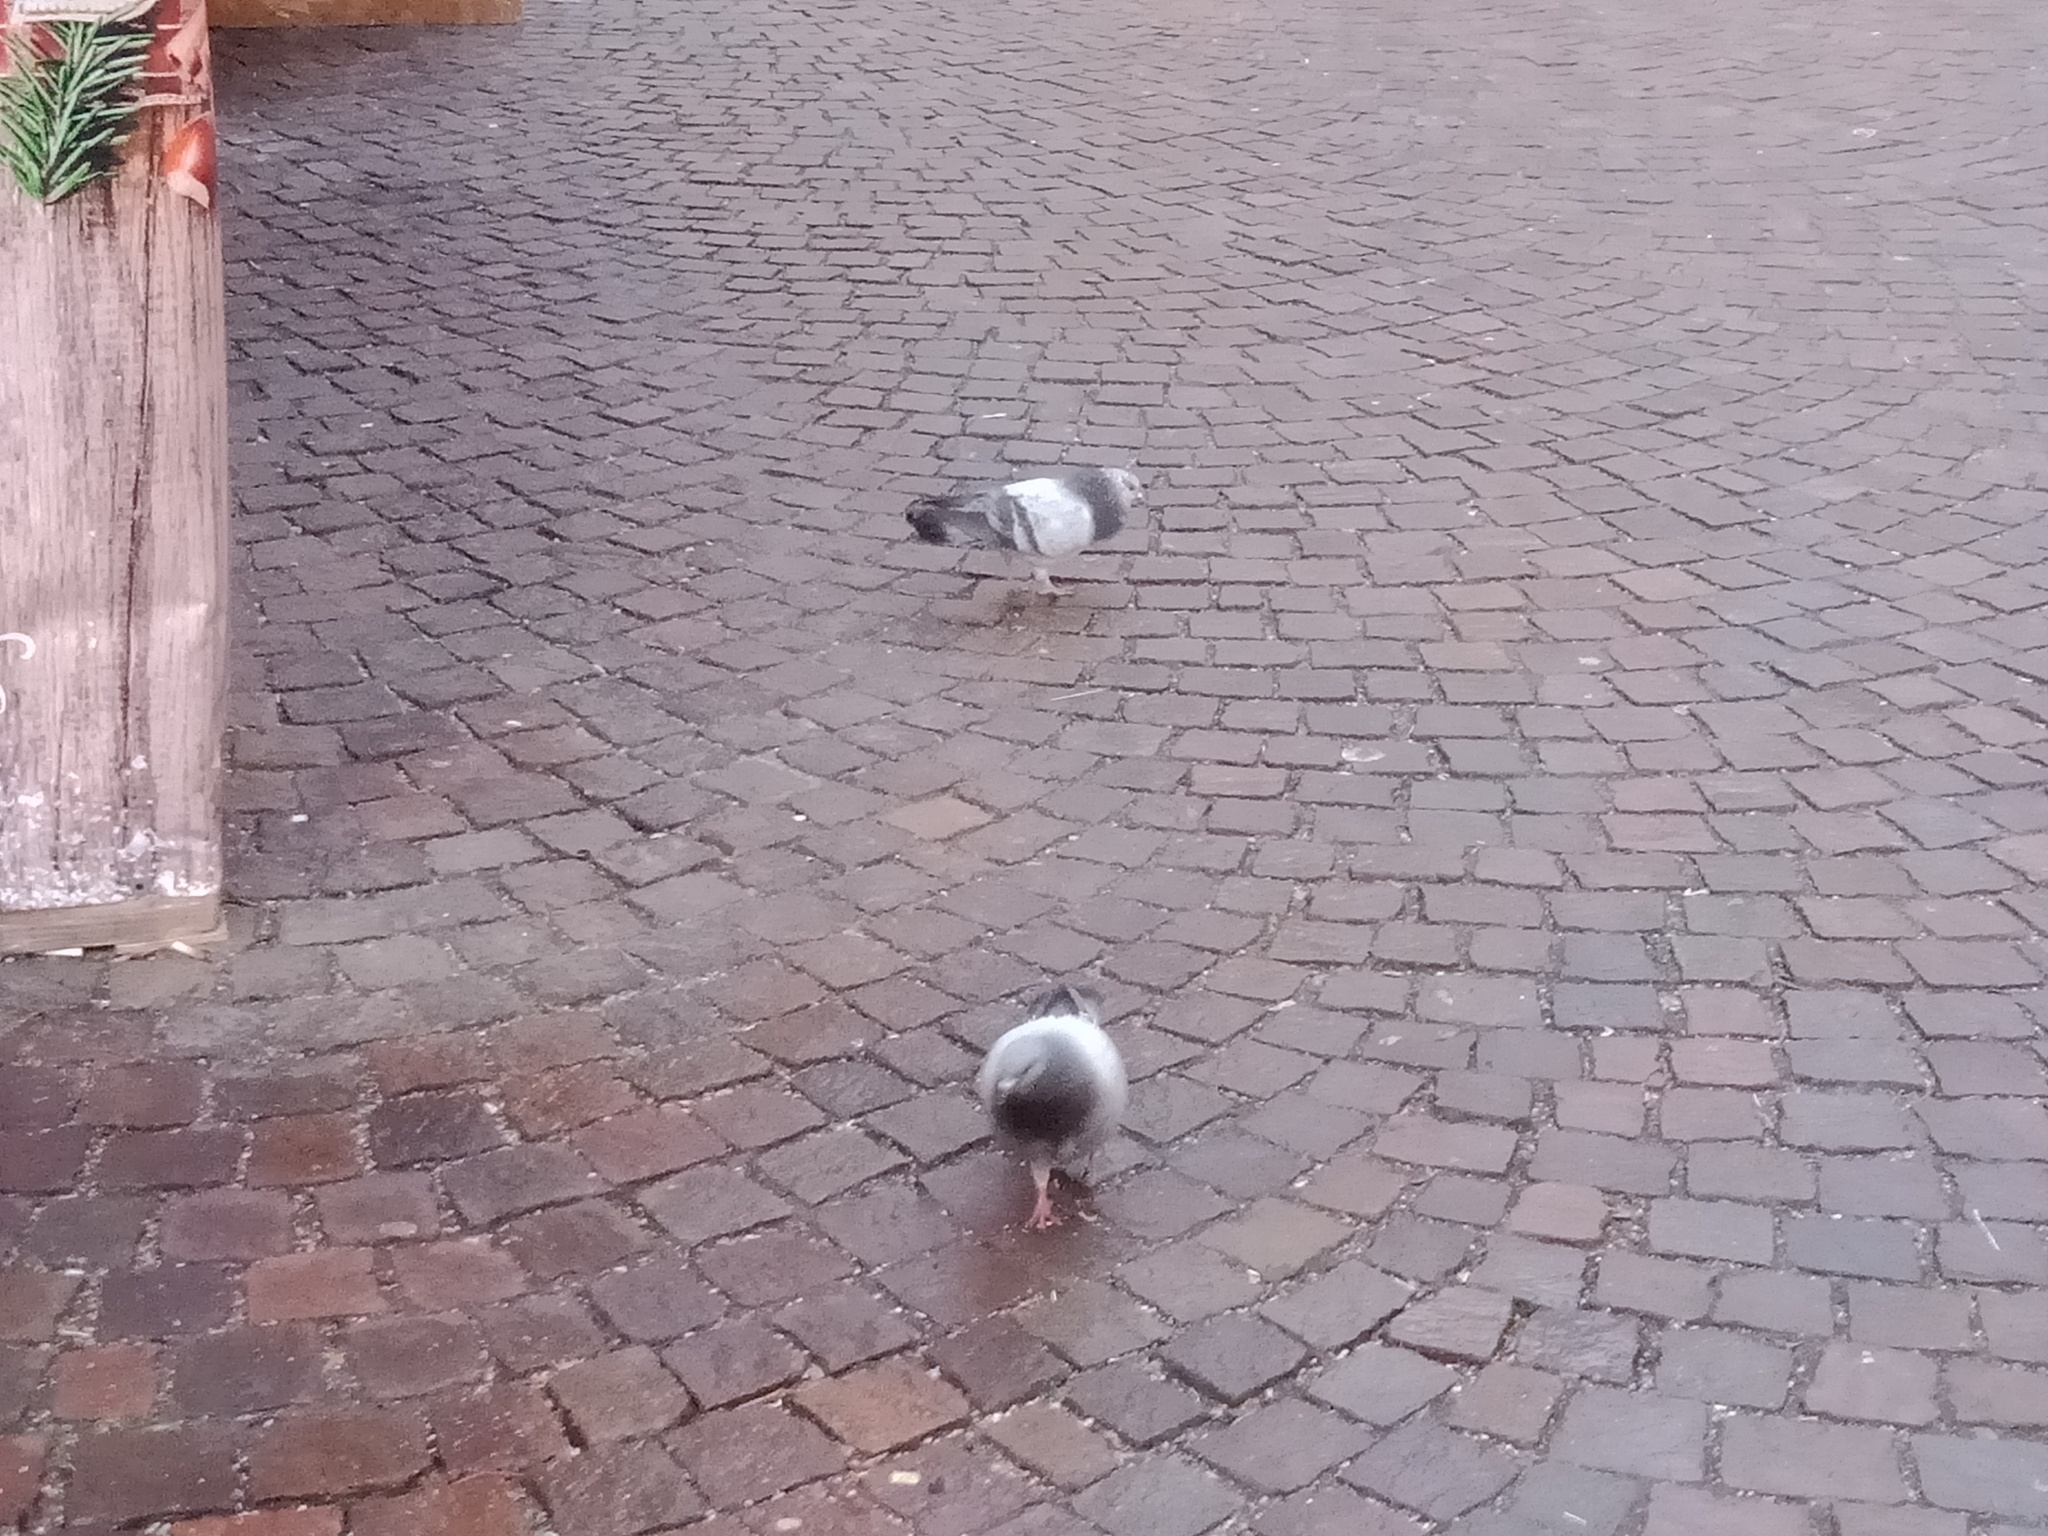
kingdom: Animalia
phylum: Chordata
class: Aves
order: Columbiformes
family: Columbidae
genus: Columba
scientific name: Columba livia
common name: Rock pigeon
